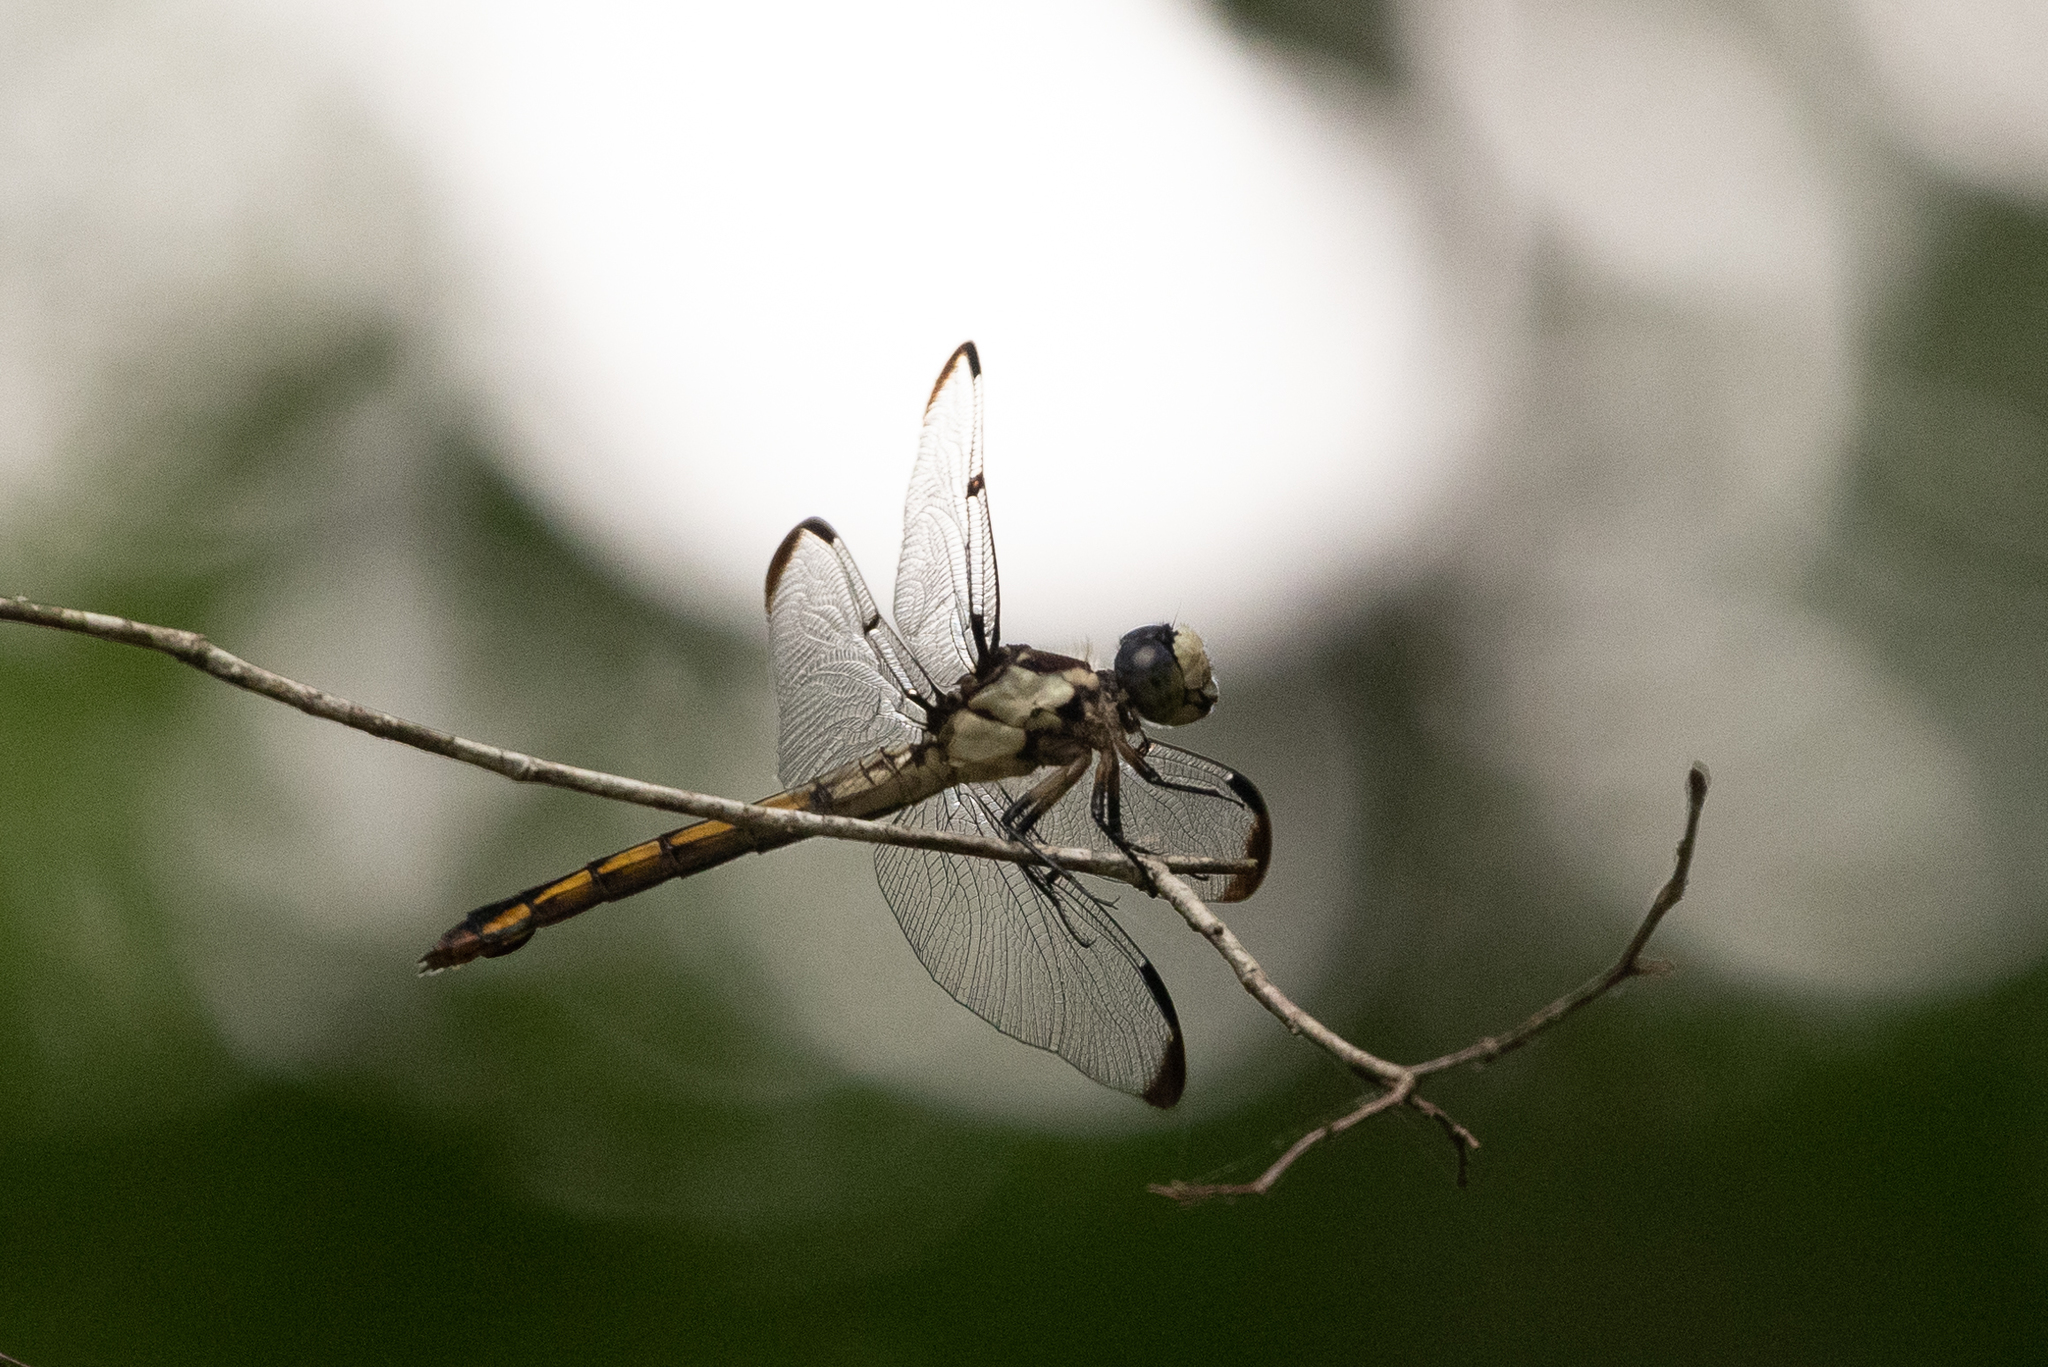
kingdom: Animalia
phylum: Arthropoda
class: Insecta
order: Odonata
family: Libellulidae
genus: Libellula
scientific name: Libellula vibrans
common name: Great blue skimmer
